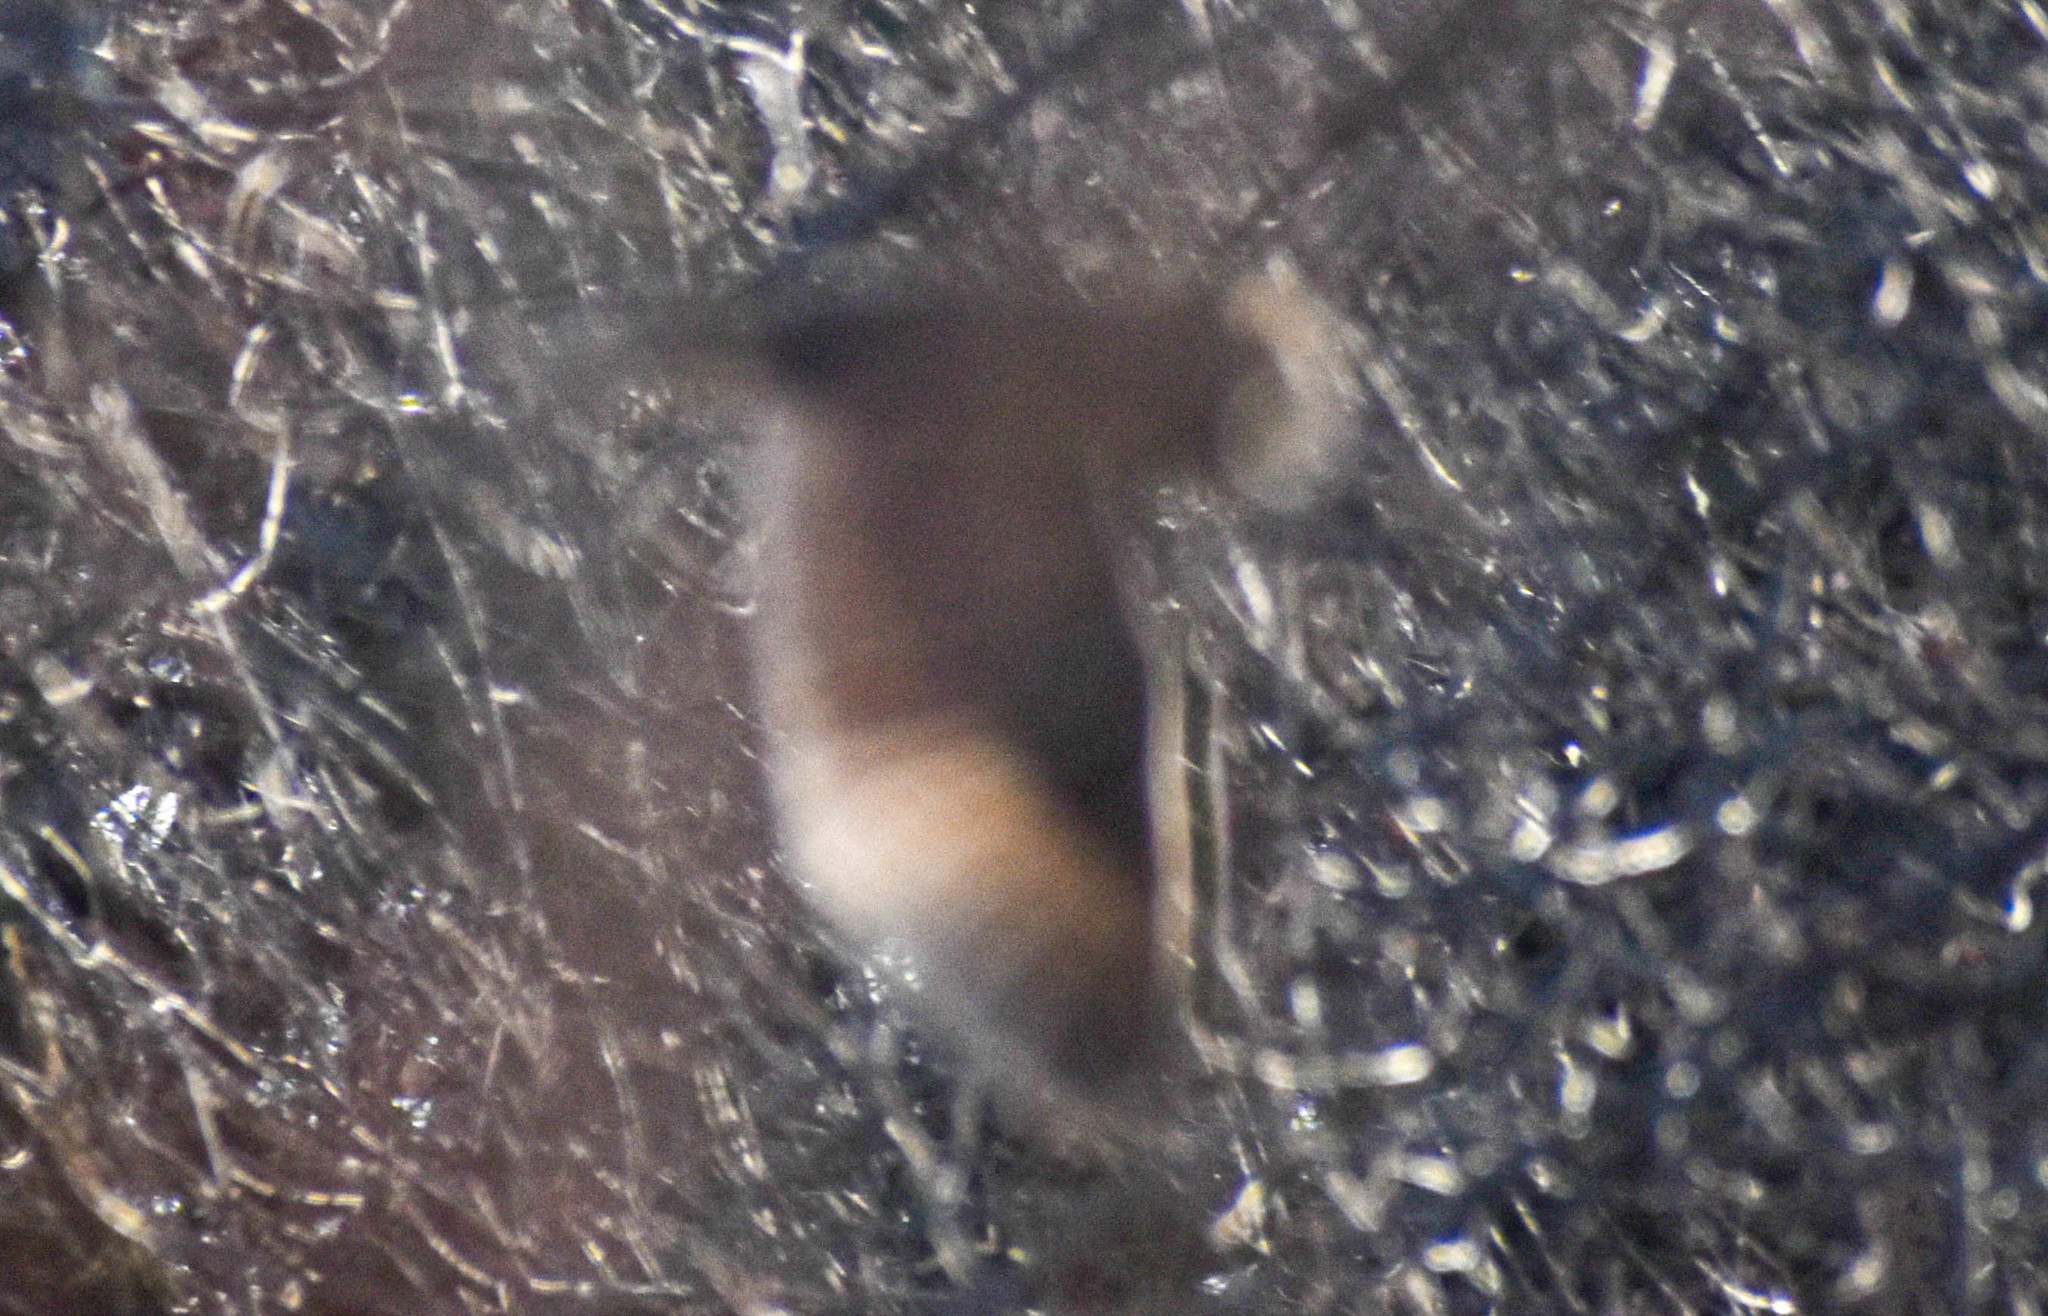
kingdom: Animalia
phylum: Chordata
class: Aves
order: Strigiformes
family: Strigidae
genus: Asio
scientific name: Asio otus
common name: Long-eared owl
